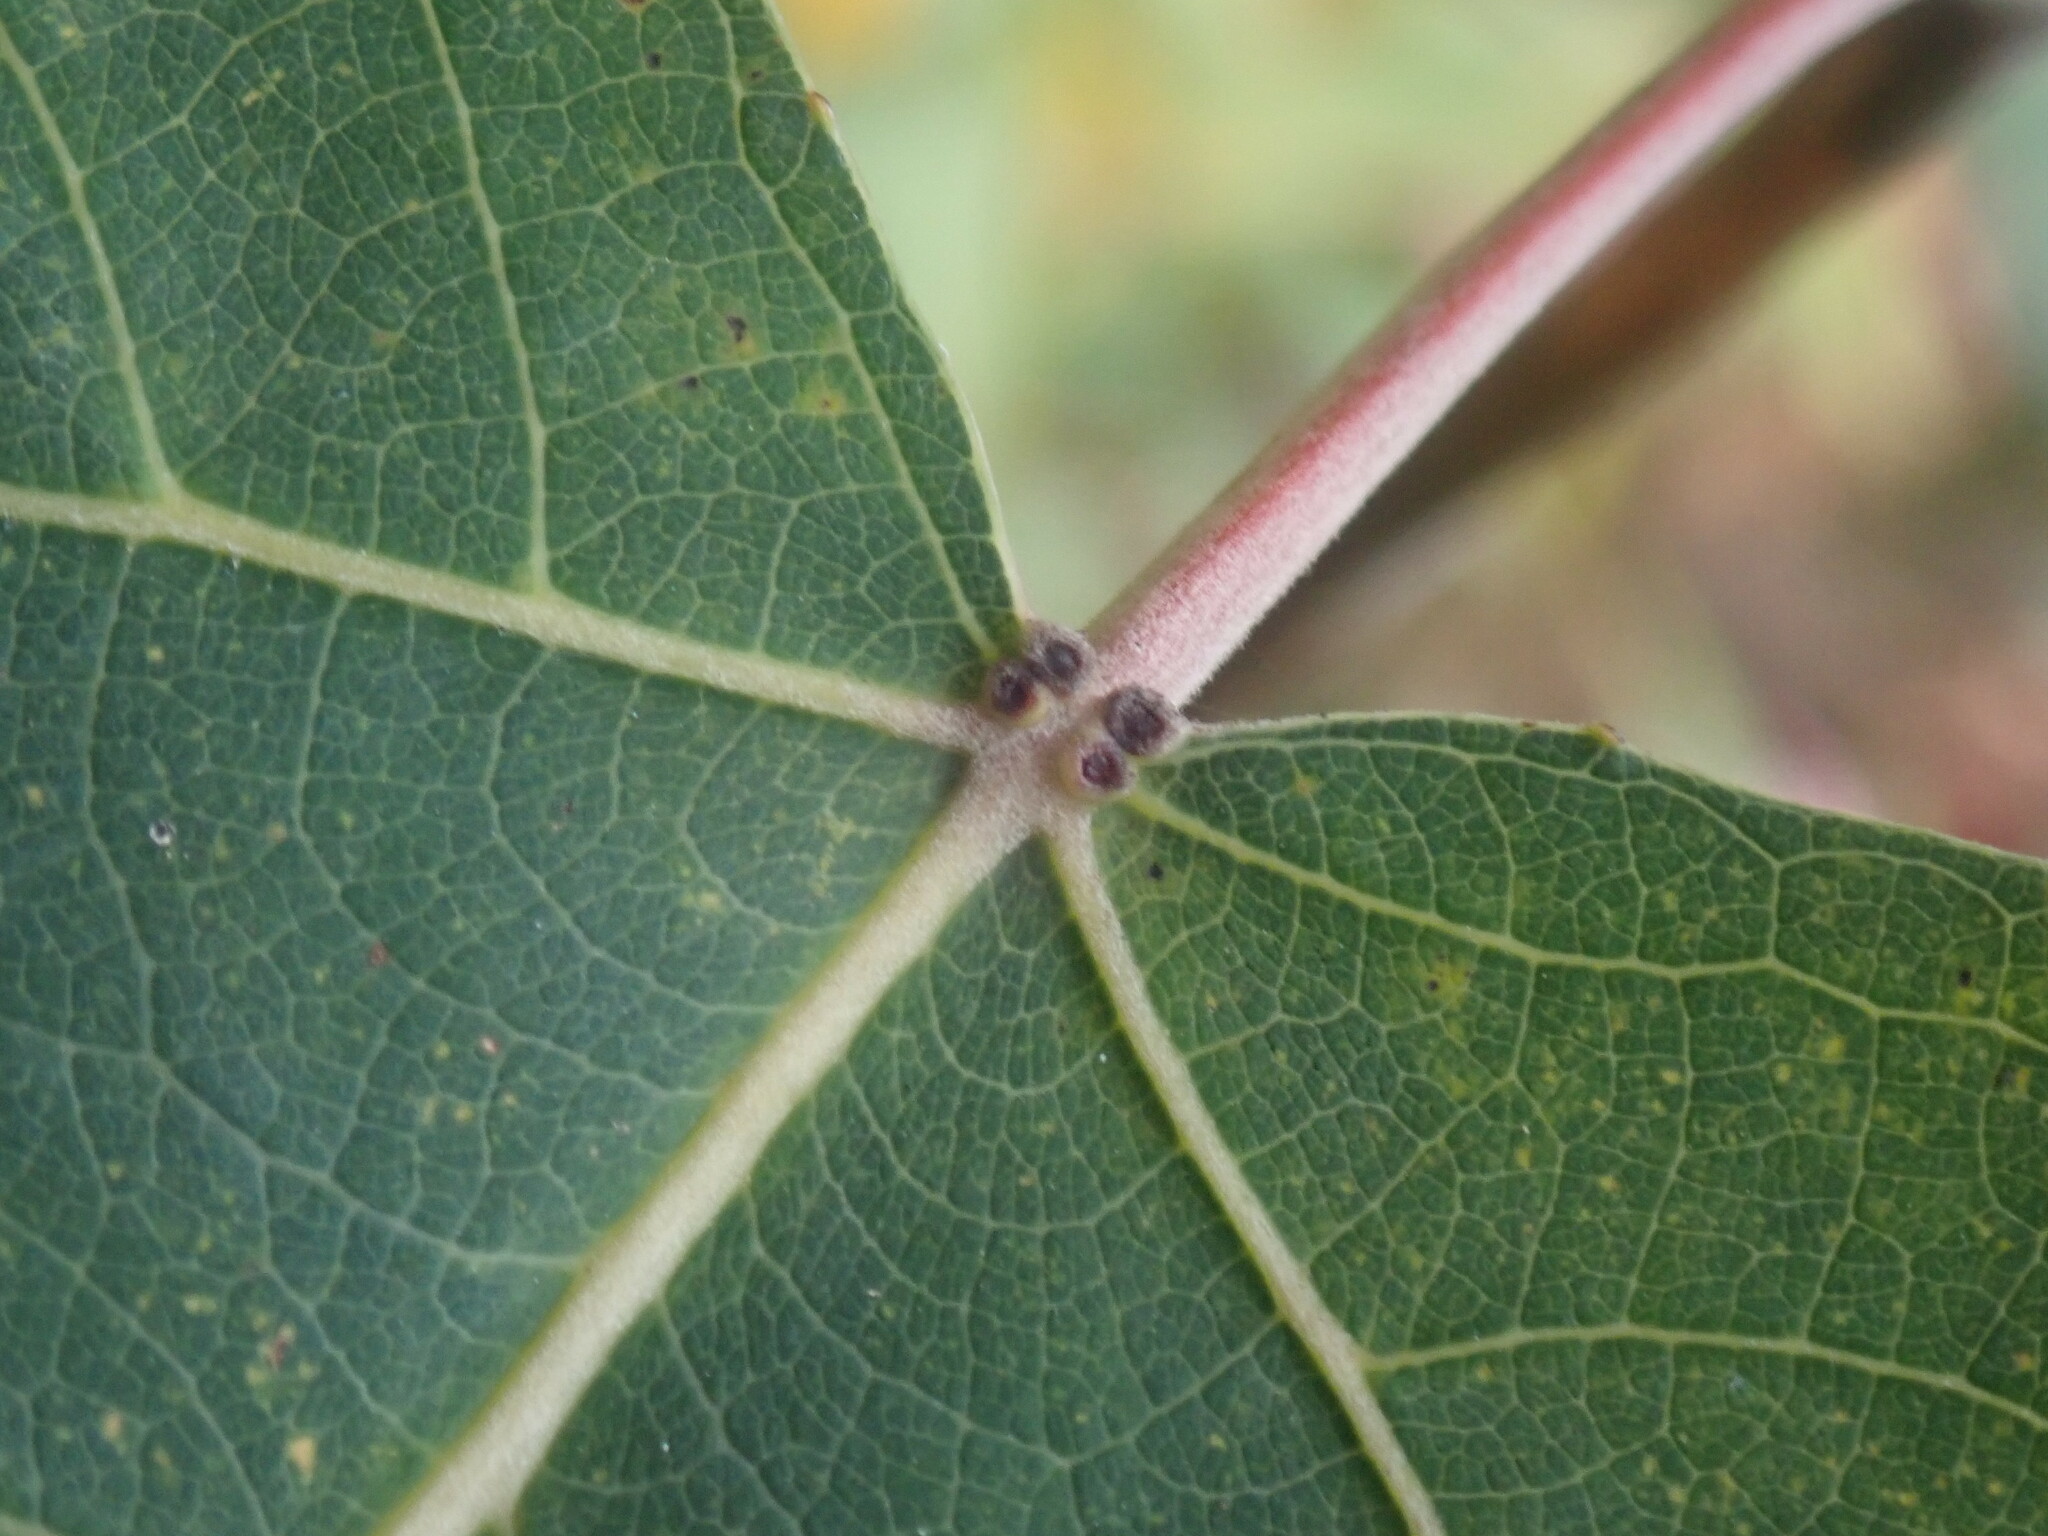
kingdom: Plantae
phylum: Tracheophyta
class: Magnoliopsida
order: Malpighiales
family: Salicaceae
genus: Populus
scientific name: Populus
